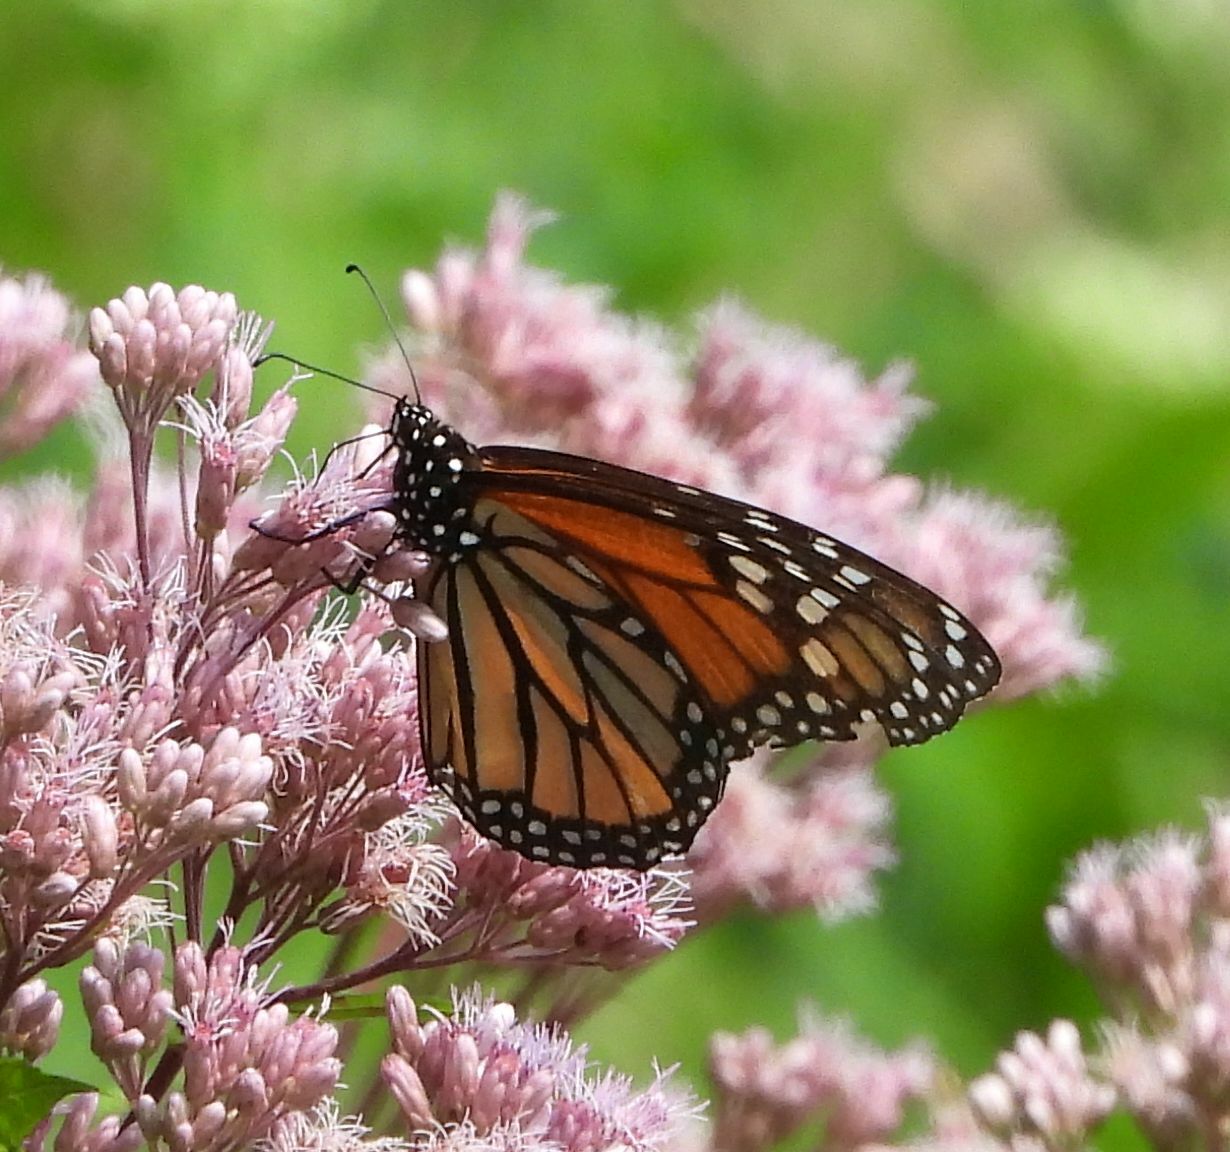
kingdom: Animalia
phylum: Arthropoda
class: Insecta
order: Lepidoptera
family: Nymphalidae
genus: Danaus
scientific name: Danaus plexippus
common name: Monarch
